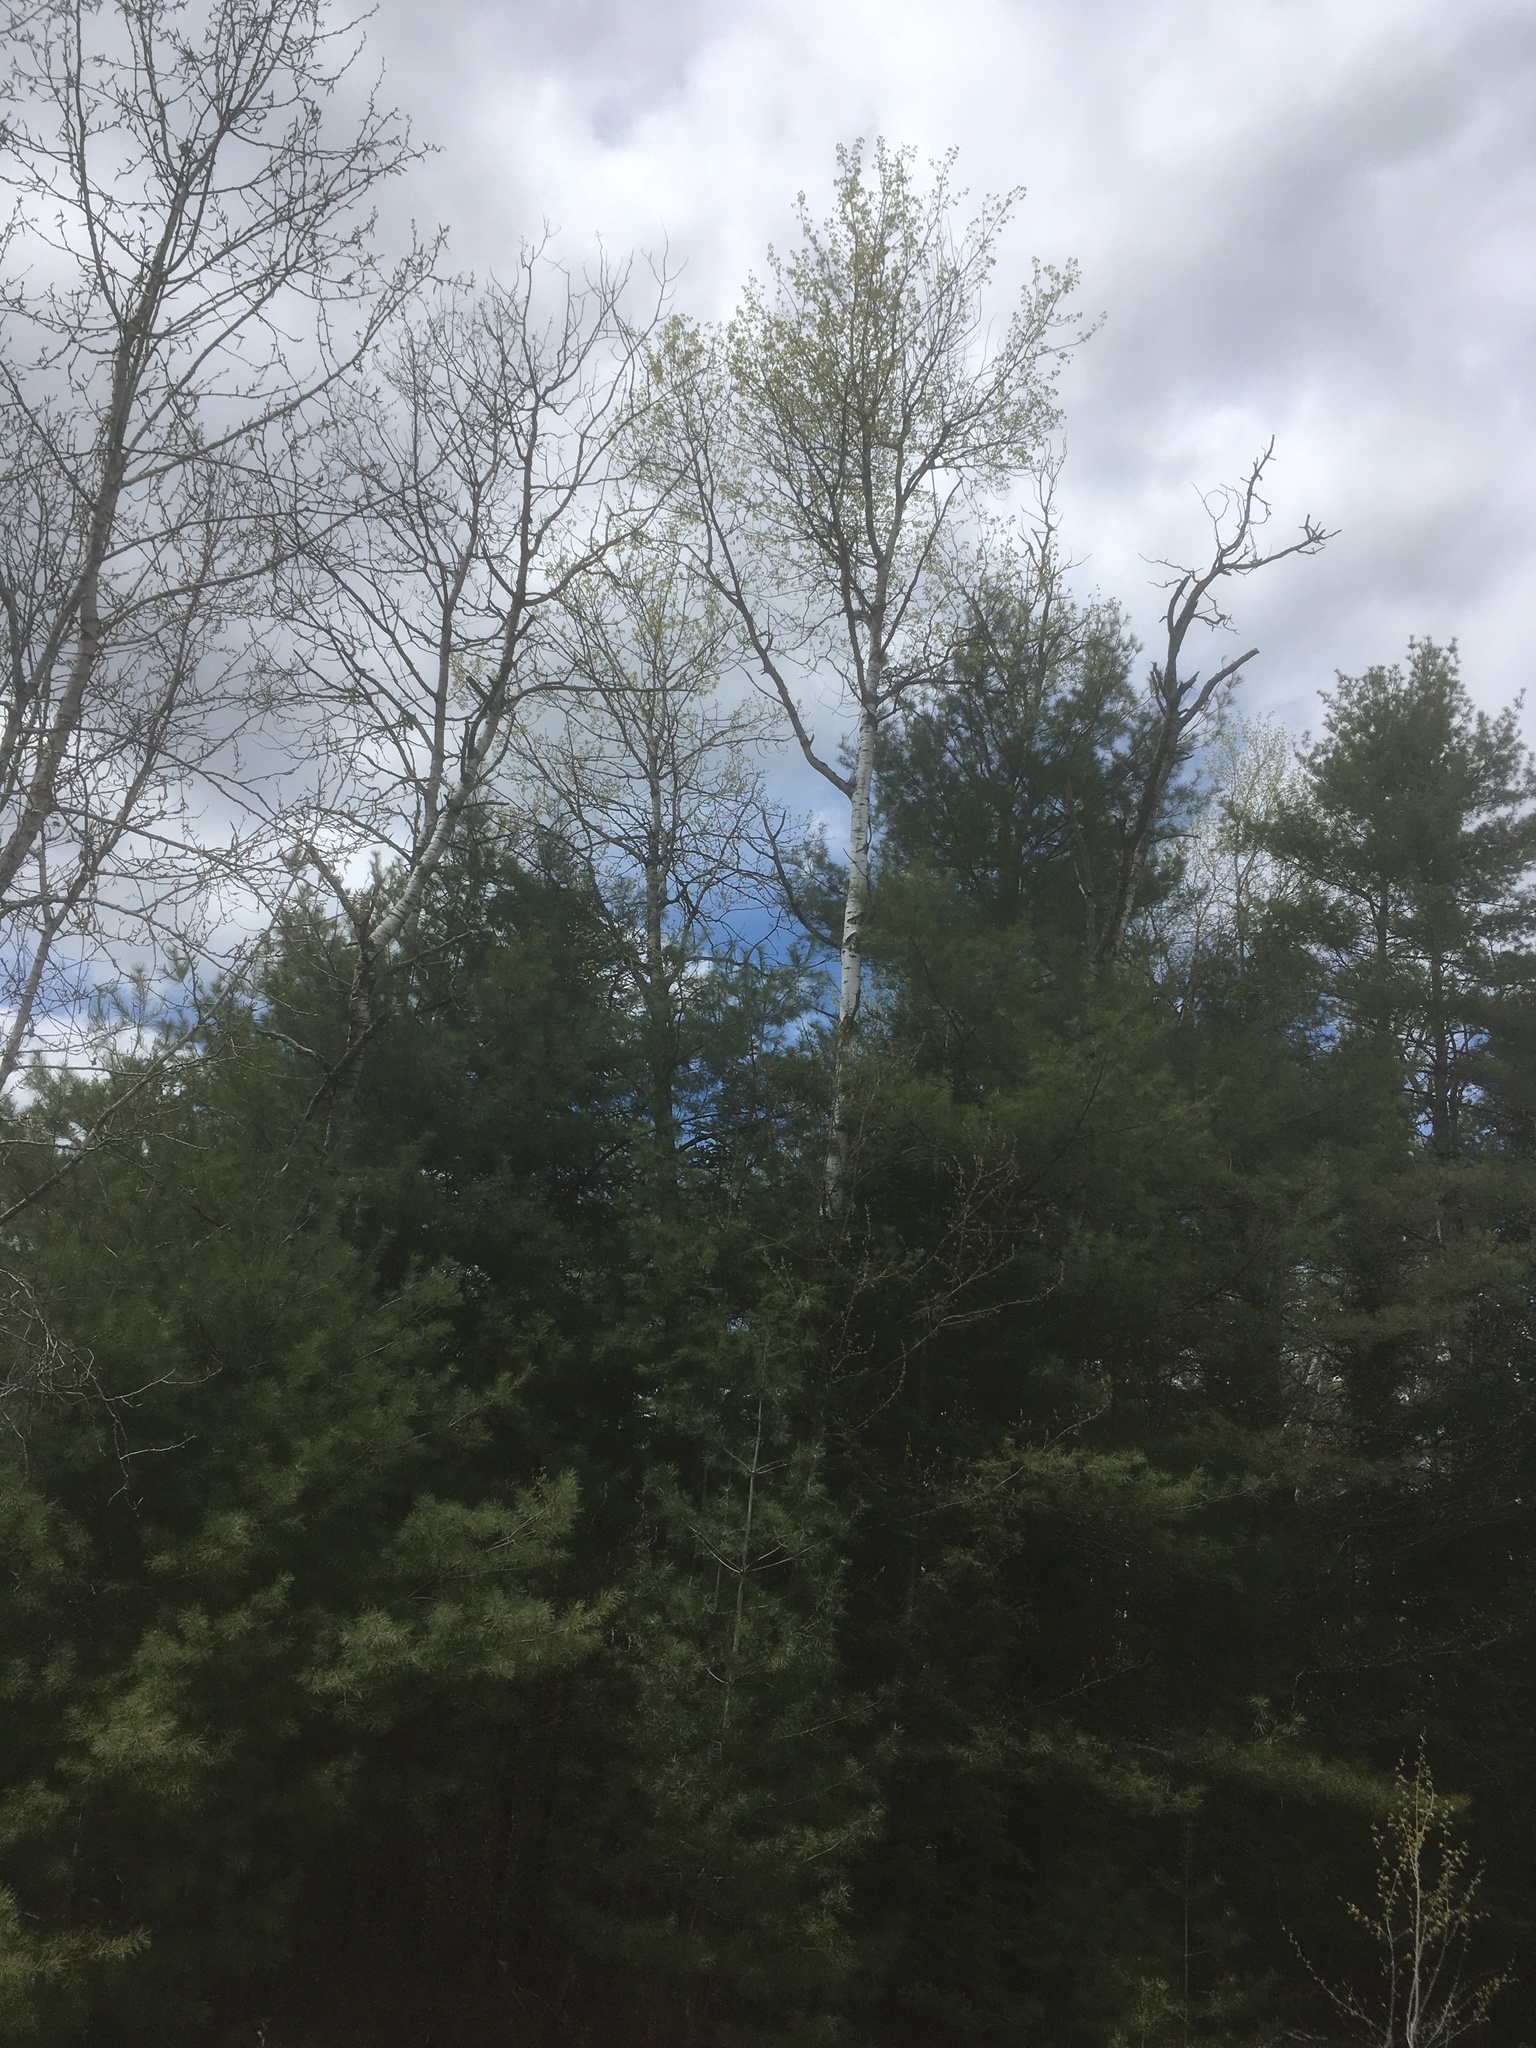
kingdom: Plantae
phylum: Tracheophyta
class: Magnoliopsida
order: Malpighiales
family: Salicaceae
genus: Populus
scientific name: Populus tremuloides
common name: Quaking aspen
